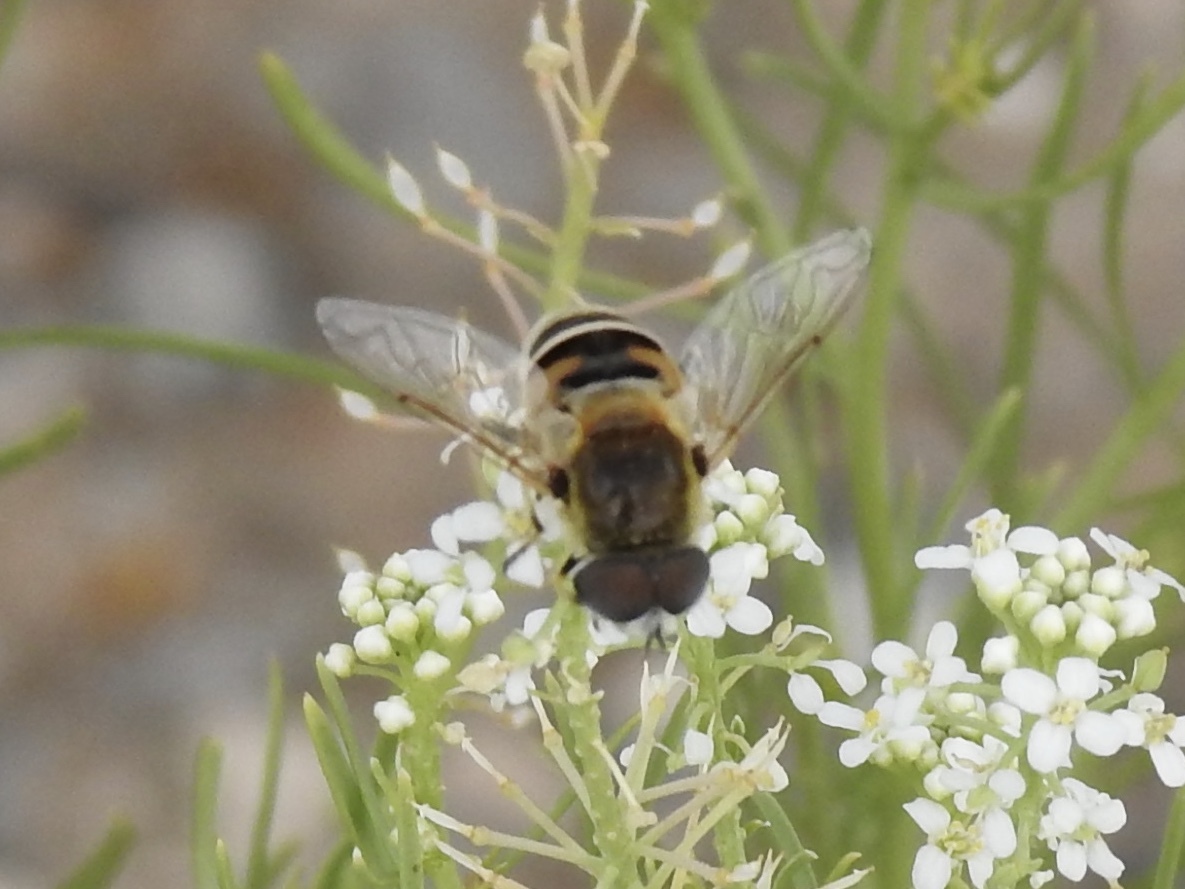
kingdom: Animalia
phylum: Arthropoda
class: Insecta
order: Diptera
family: Syrphidae
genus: Eristalis
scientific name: Eristalis stipator
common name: Yellow-shouldered drone fly
